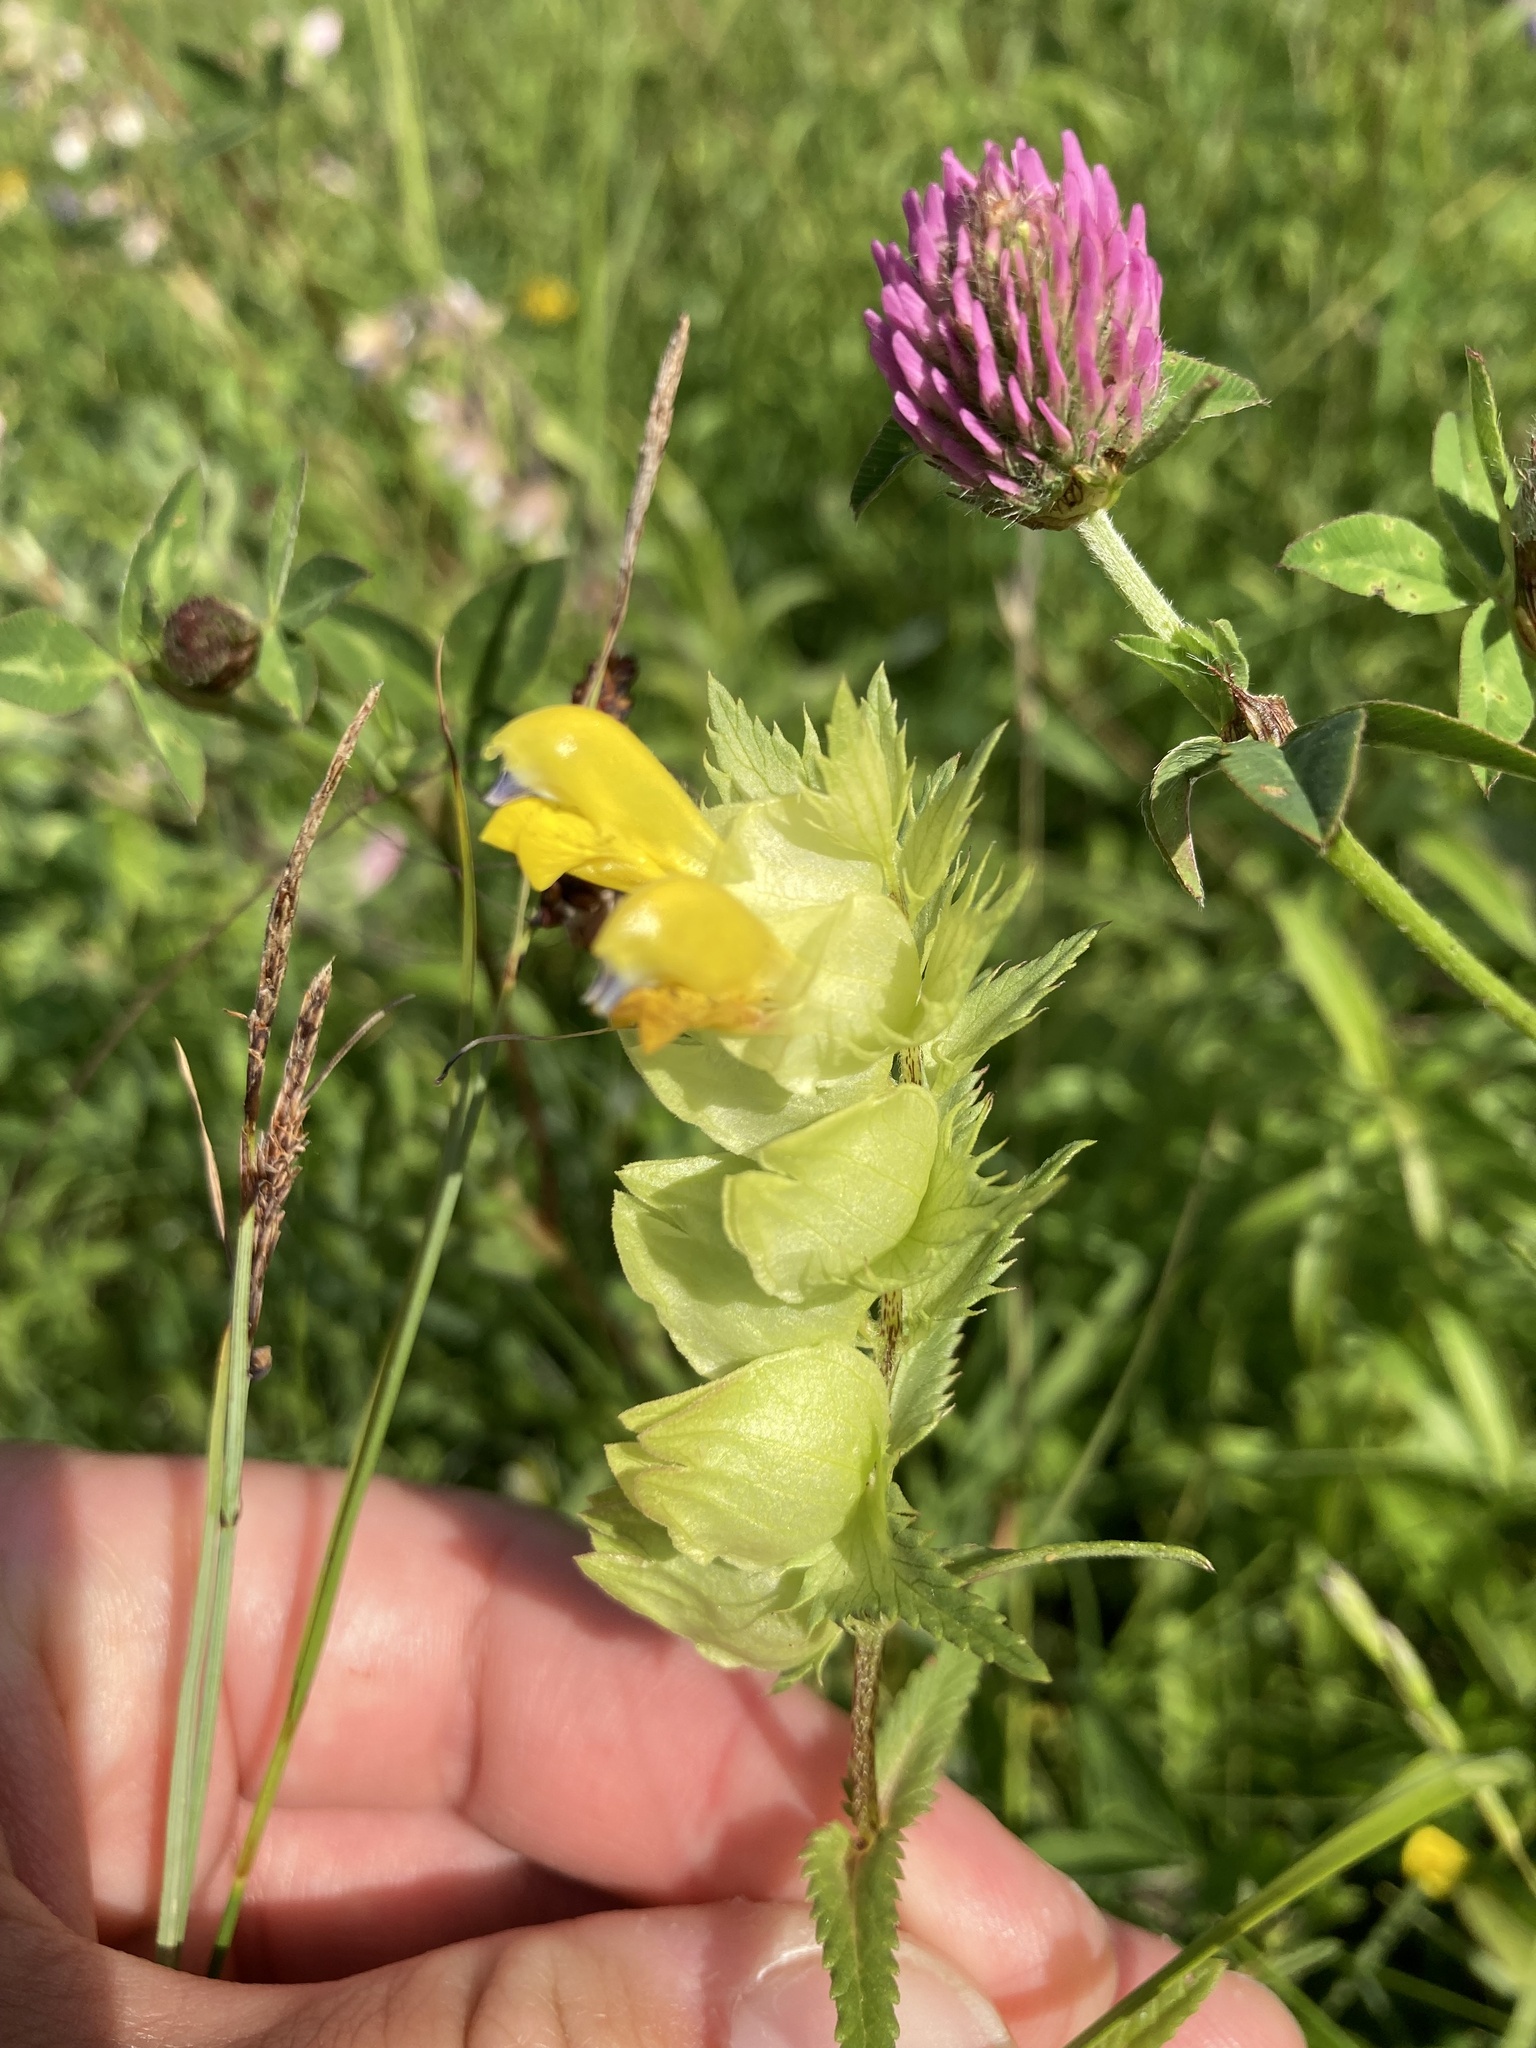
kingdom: Plantae
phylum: Tracheophyta
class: Magnoliopsida
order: Lamiales
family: Orobanchaceae
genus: Rhinanthus
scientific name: Rhinanthus serotinus
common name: Late-flowering yellow rattle
